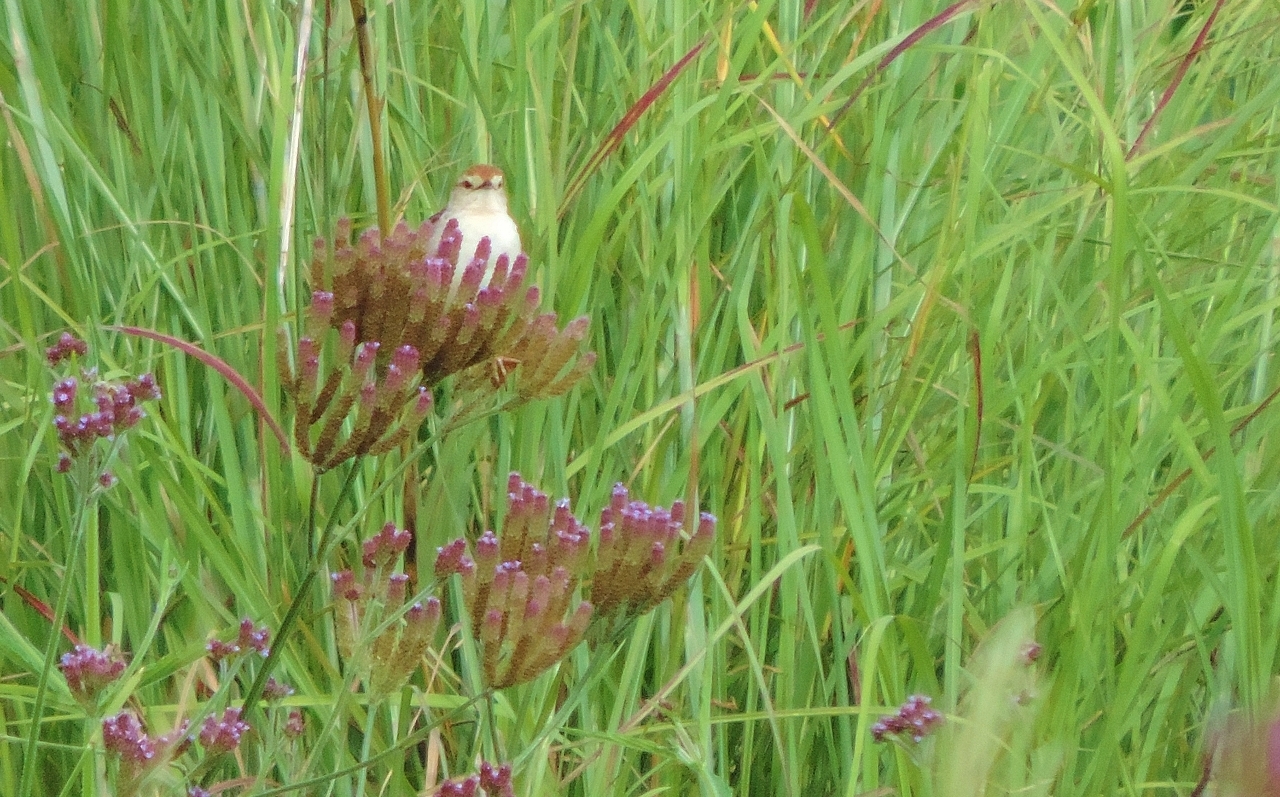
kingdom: Animalia
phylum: Chordata
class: Aves
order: Passeriformes
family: Cisticolidae
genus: Cisticola
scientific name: Cisticola tinniens
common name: Levaillant's cisticola
